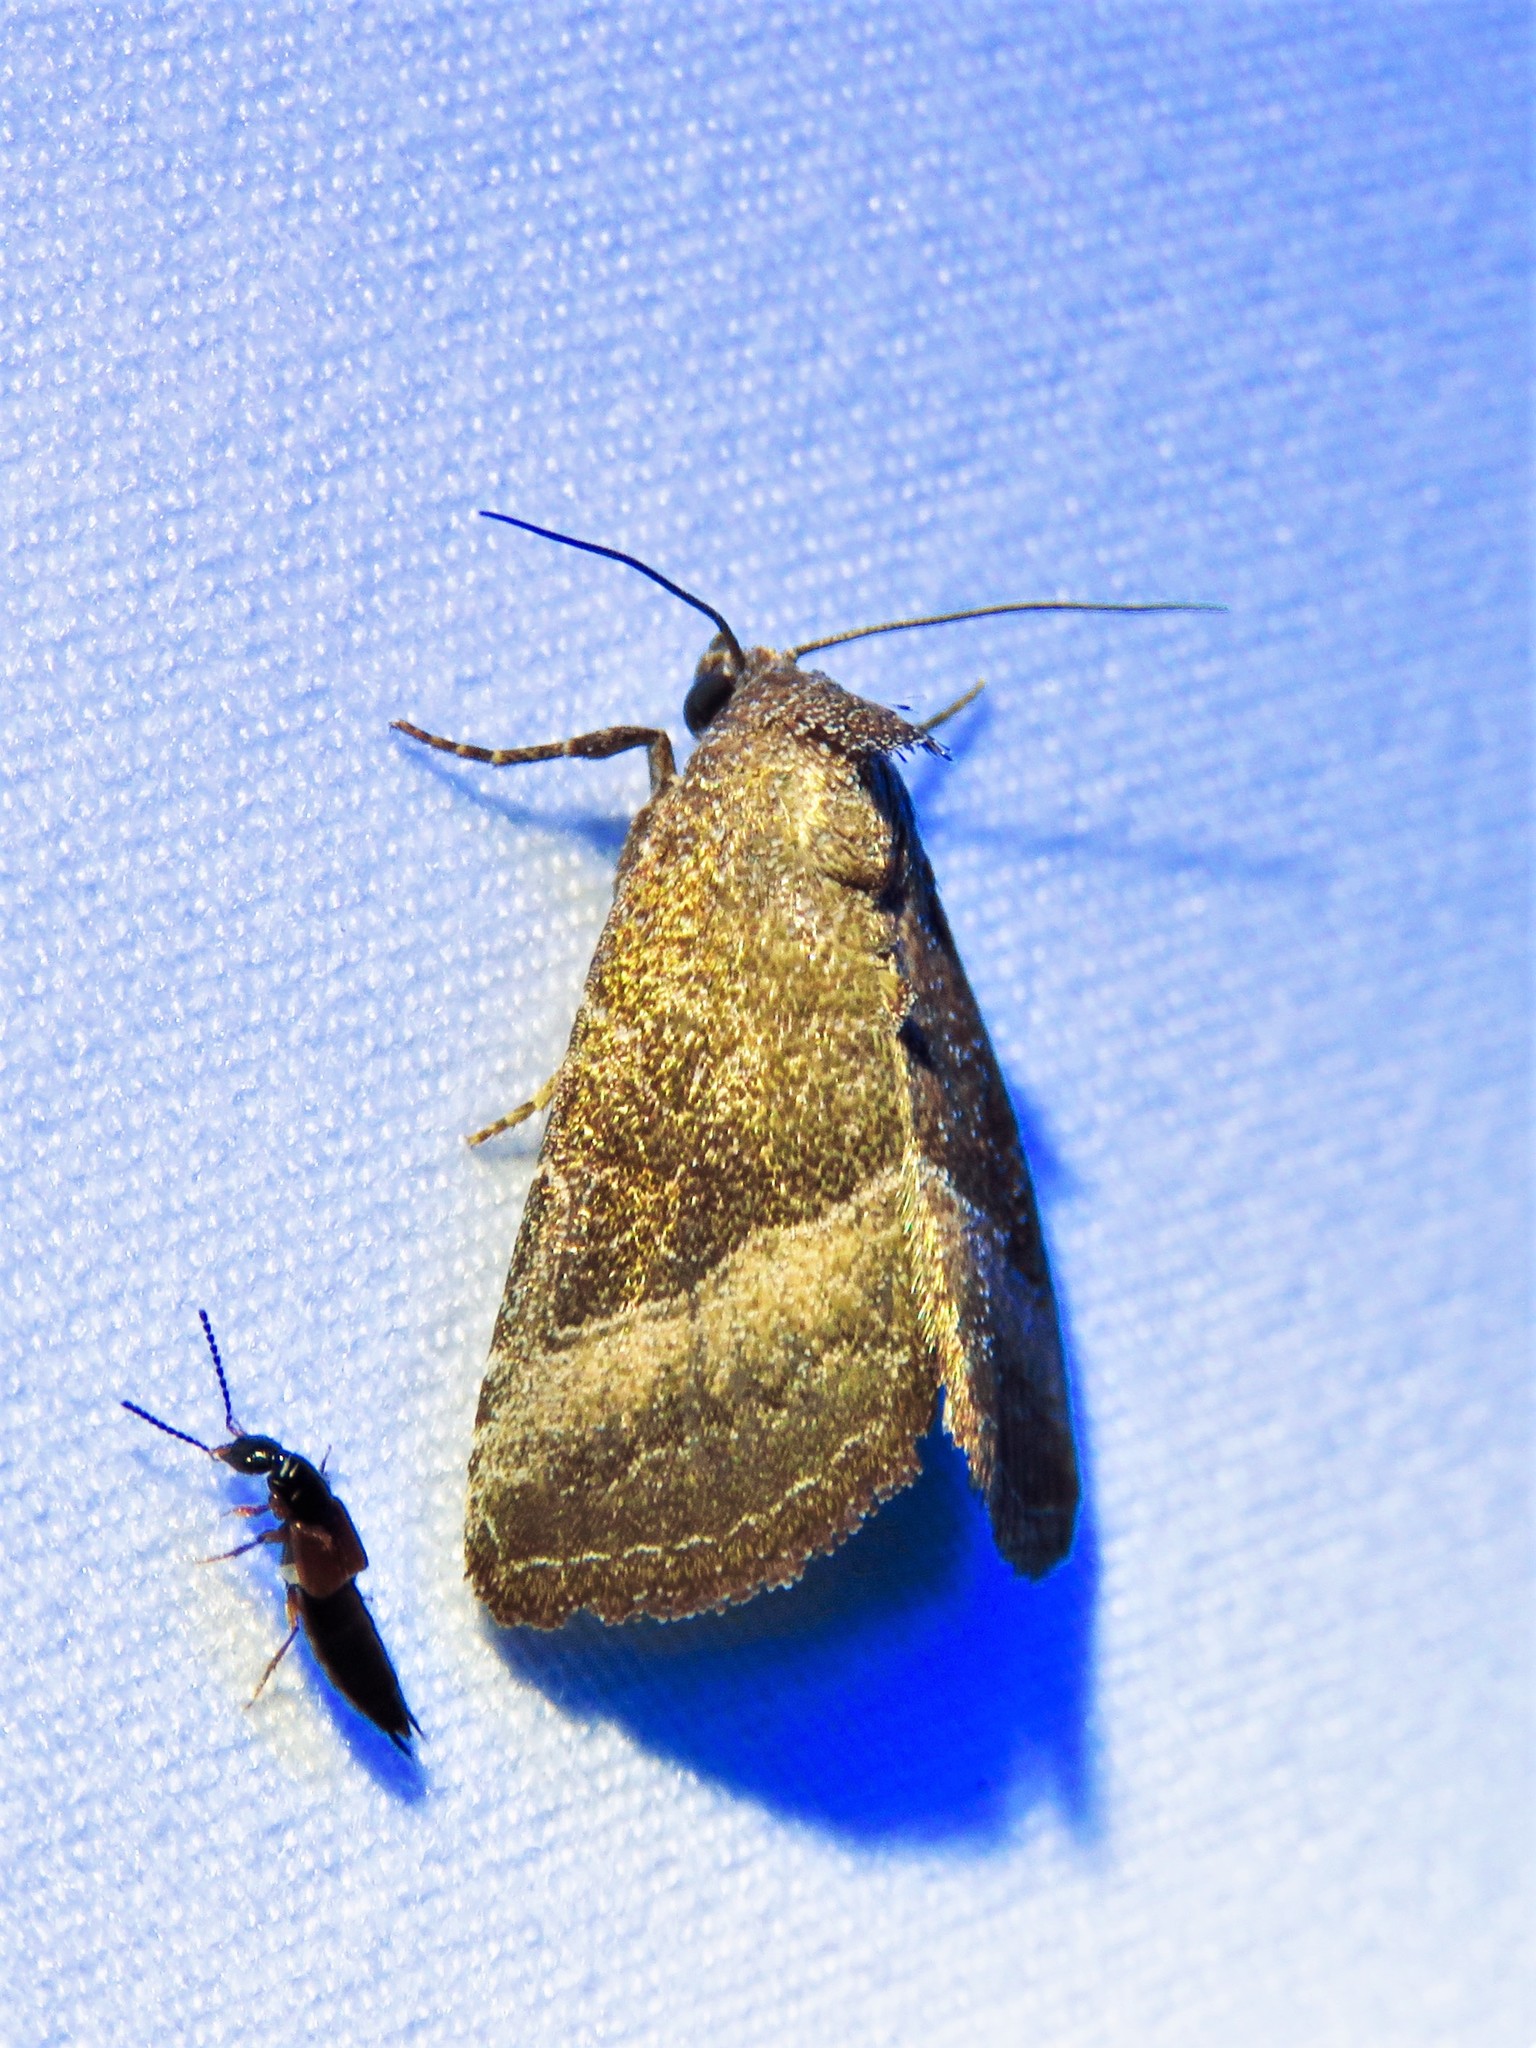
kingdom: Animalia
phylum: Arthropoda
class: Insecta
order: Lepidoptera
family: Noctuidae
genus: Ogdoconta
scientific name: Ogdoconta cinereola
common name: Common pinkband
